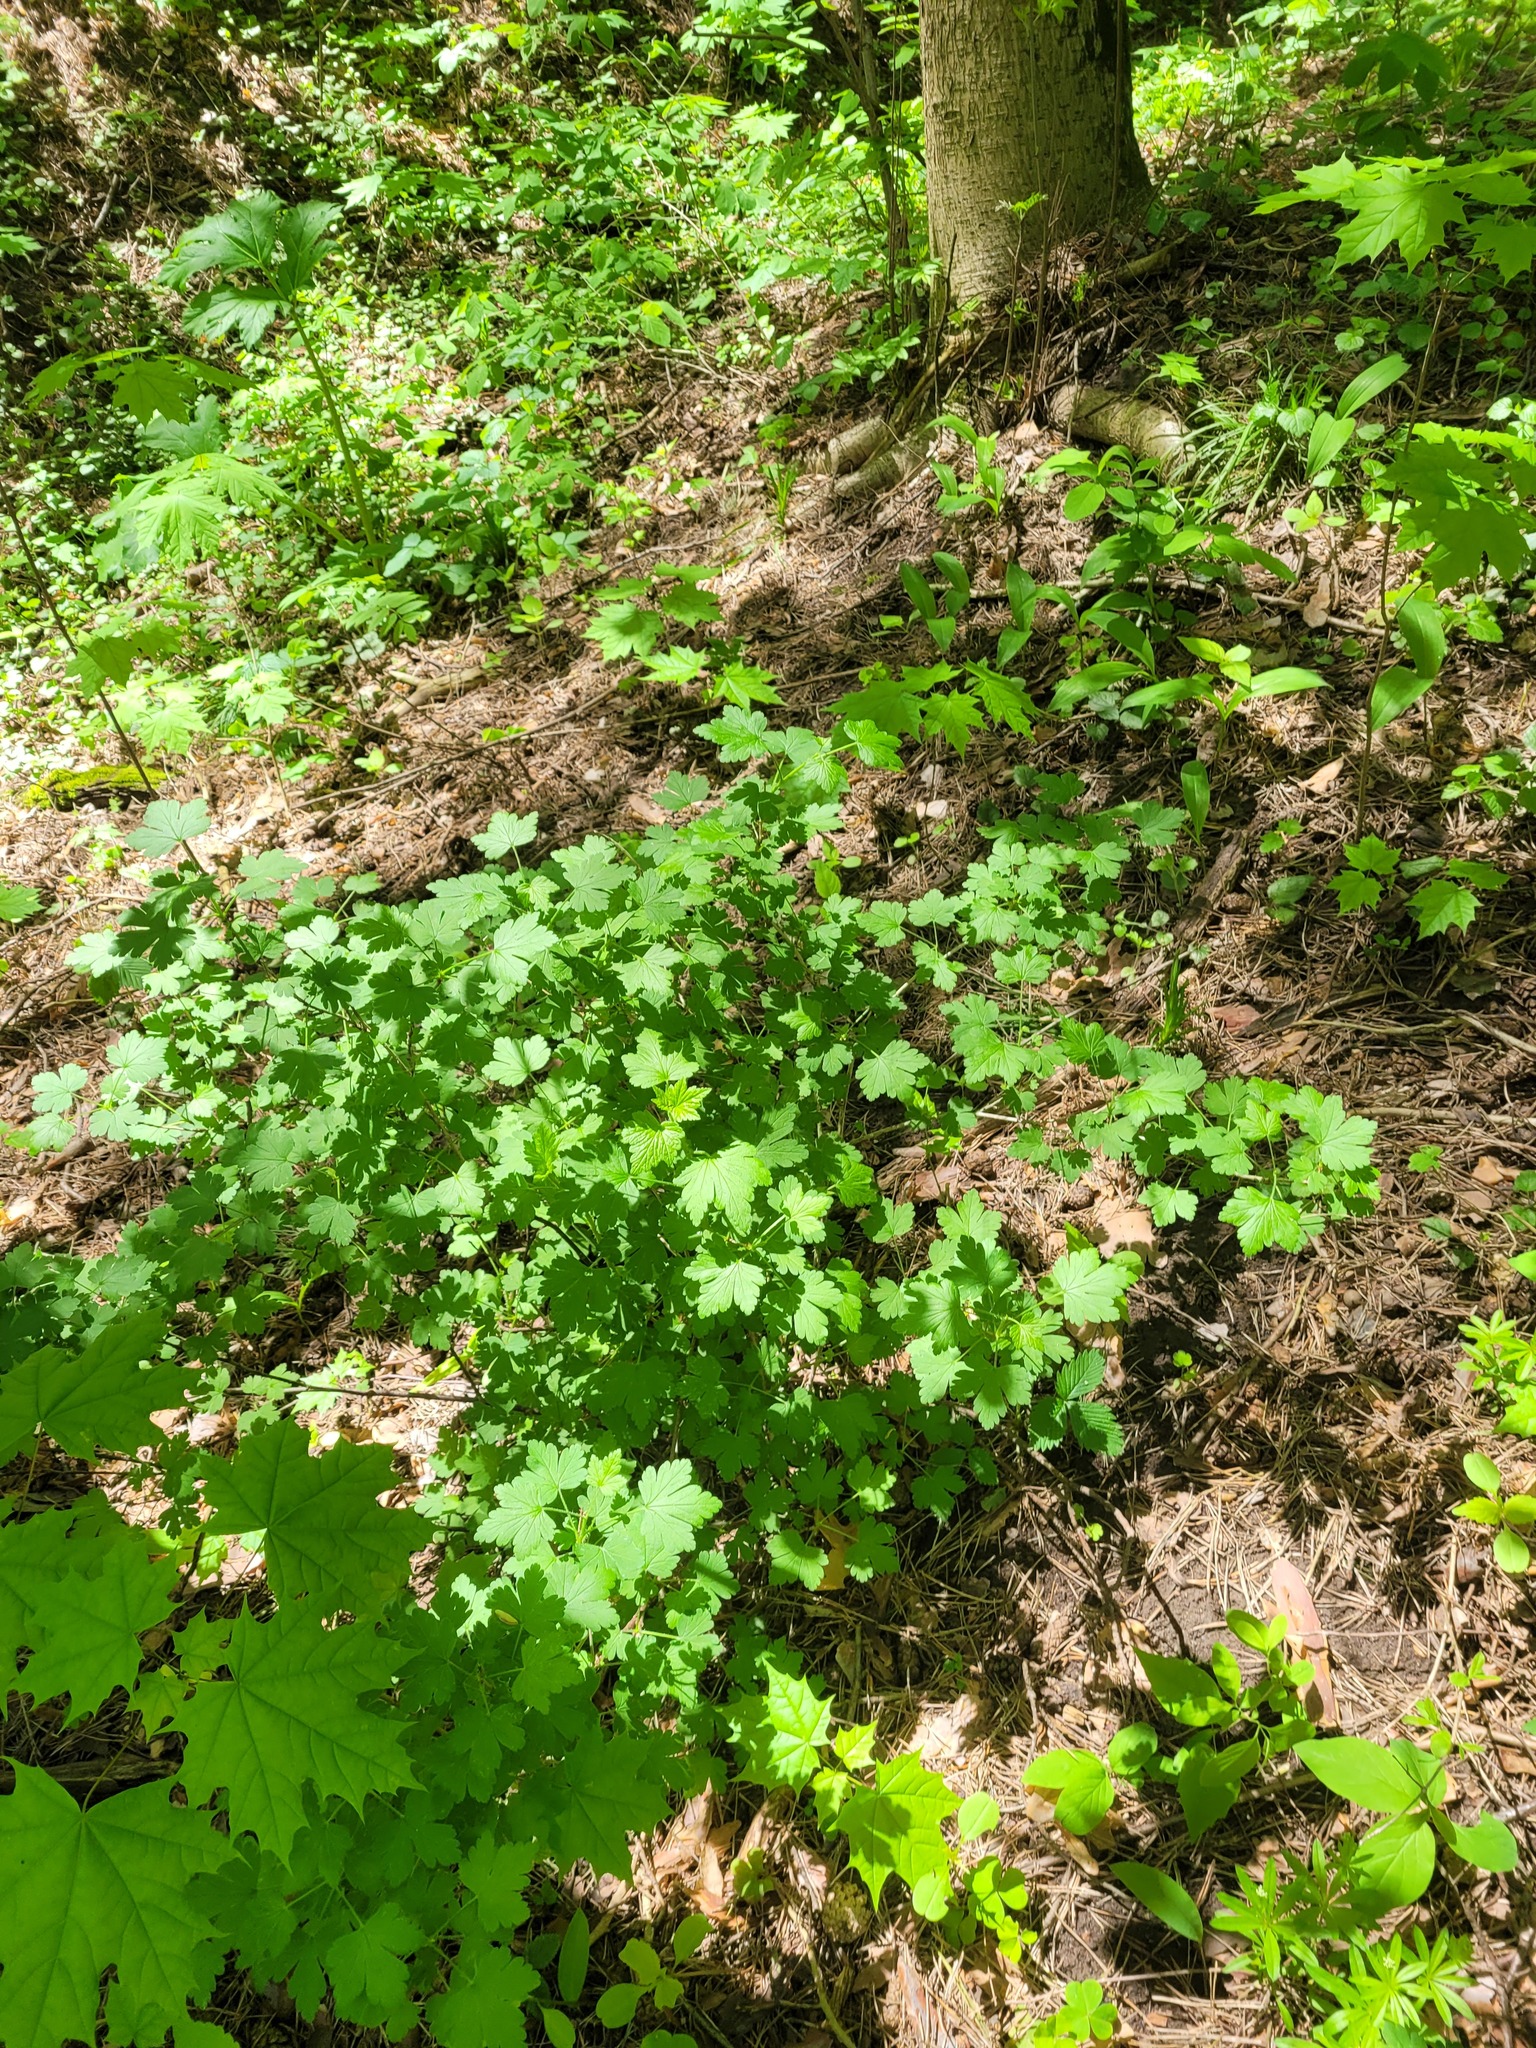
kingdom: Plantae
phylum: Tracheophyta
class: Magnoliopsida
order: Saxifragales
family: Grossulariaceae
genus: Ribes
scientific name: Ribes uva-crispa
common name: Gooseberry
